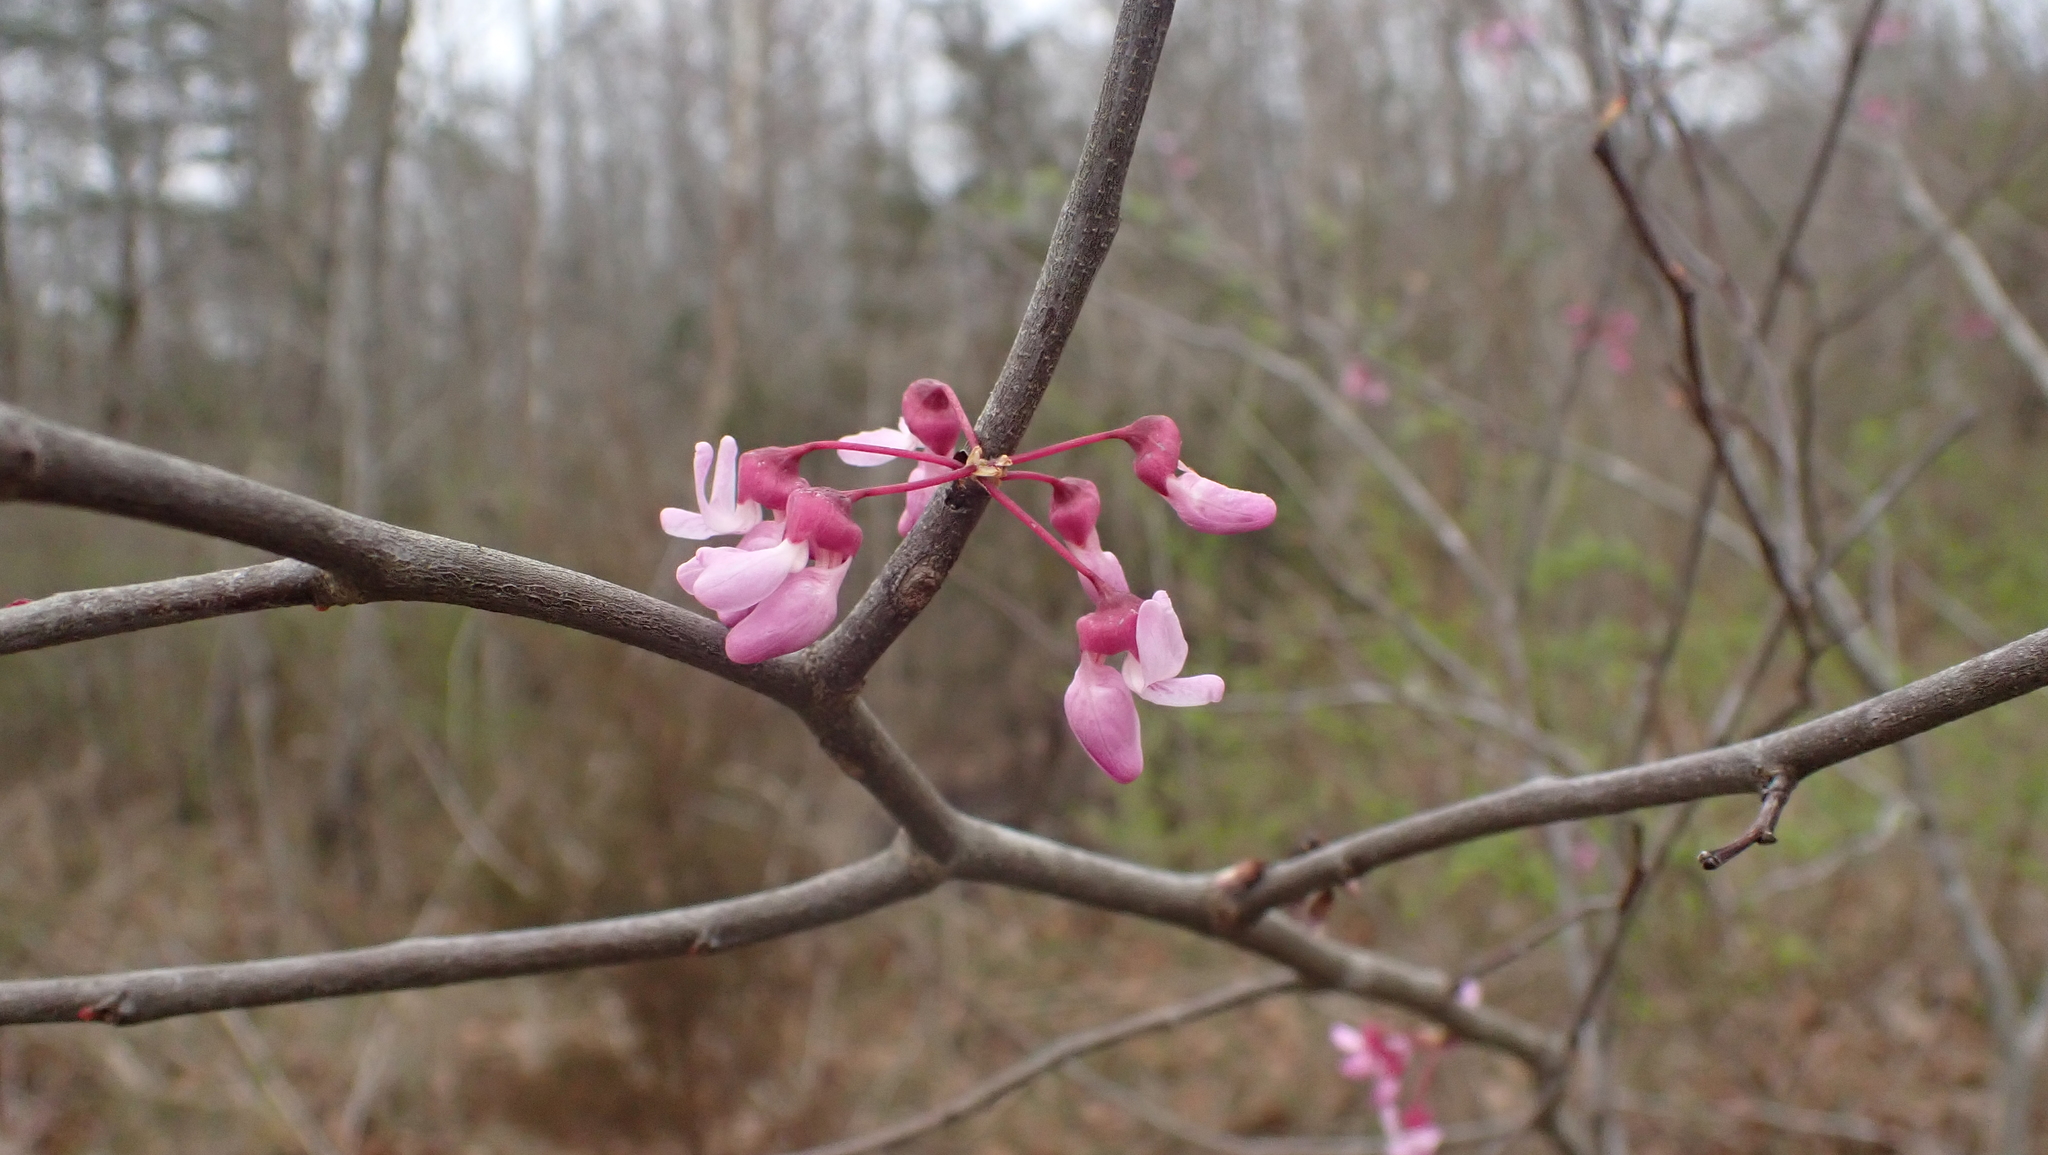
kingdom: Plantae
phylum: Tracheophyta
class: Magnoliopsida
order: Fabales
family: Fabaceae
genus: Cercis
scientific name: Cercis canadensis
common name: Eastern redbud
